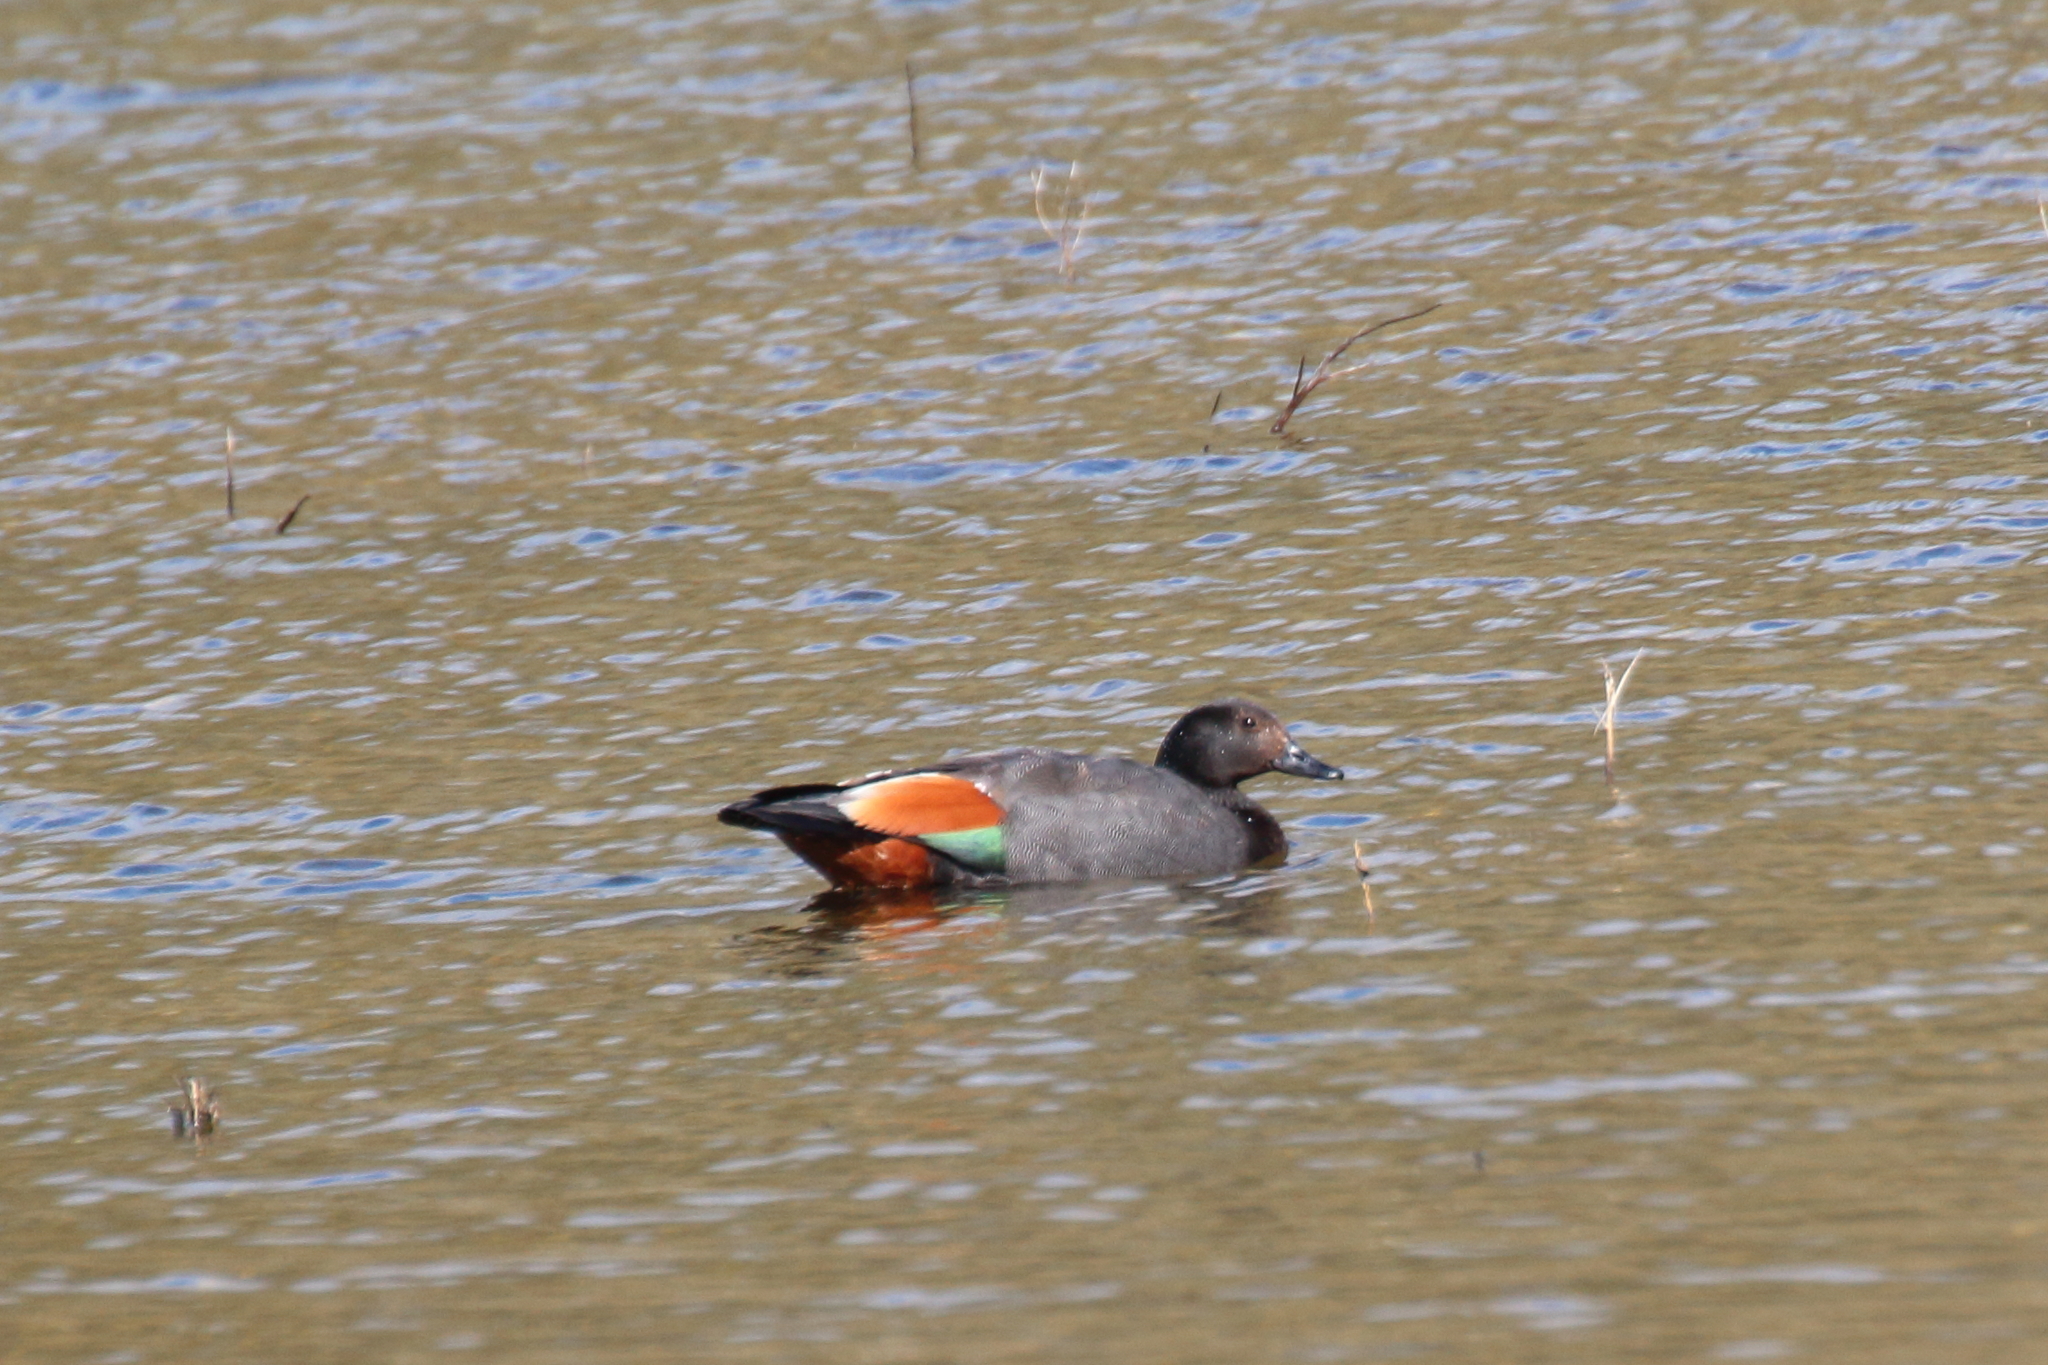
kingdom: Animalia
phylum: Chordata
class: Aves
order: Anseriformes
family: Anatidae
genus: Tadorna
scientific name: Tadorna variegata
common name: Paradise shelduck
